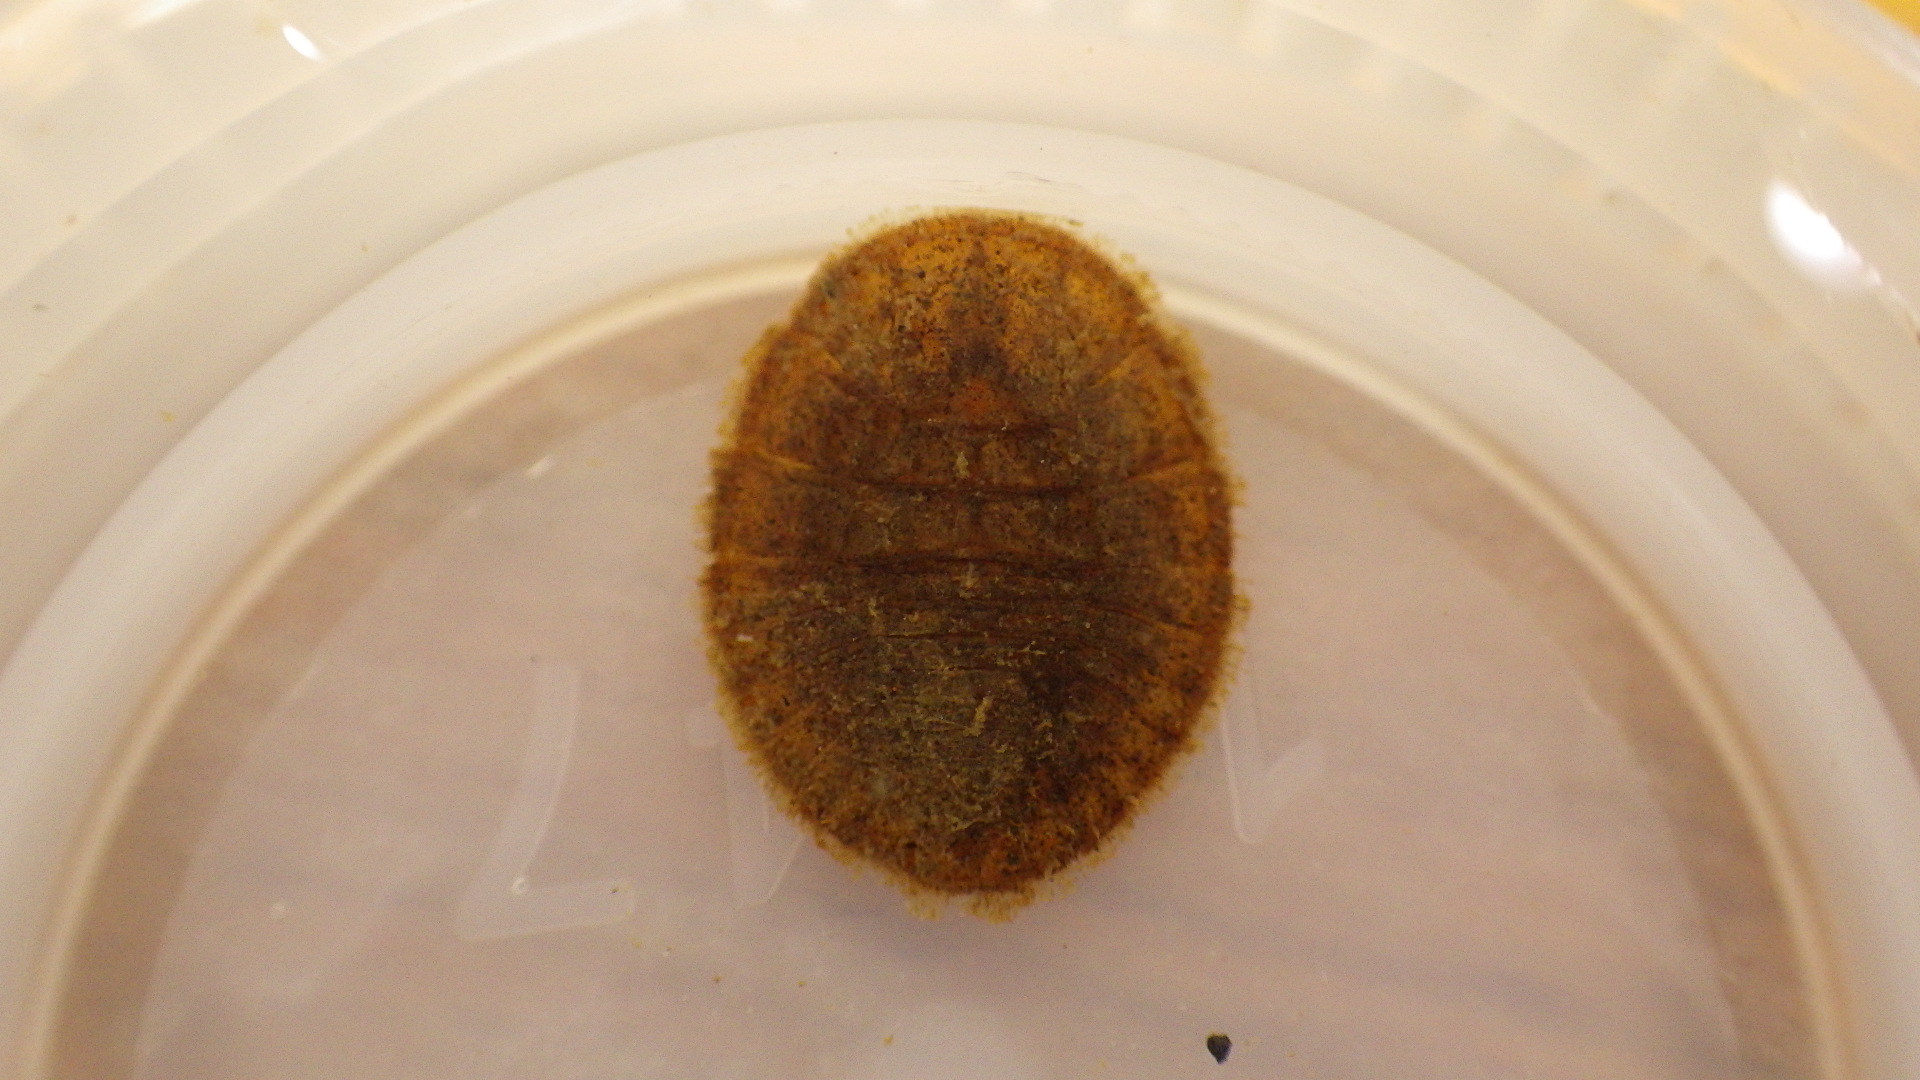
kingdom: Animalia
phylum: Arthropoda
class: Insecta
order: Coleoptera
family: Psephenidae
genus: Psephenus
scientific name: Psephenus herricki
